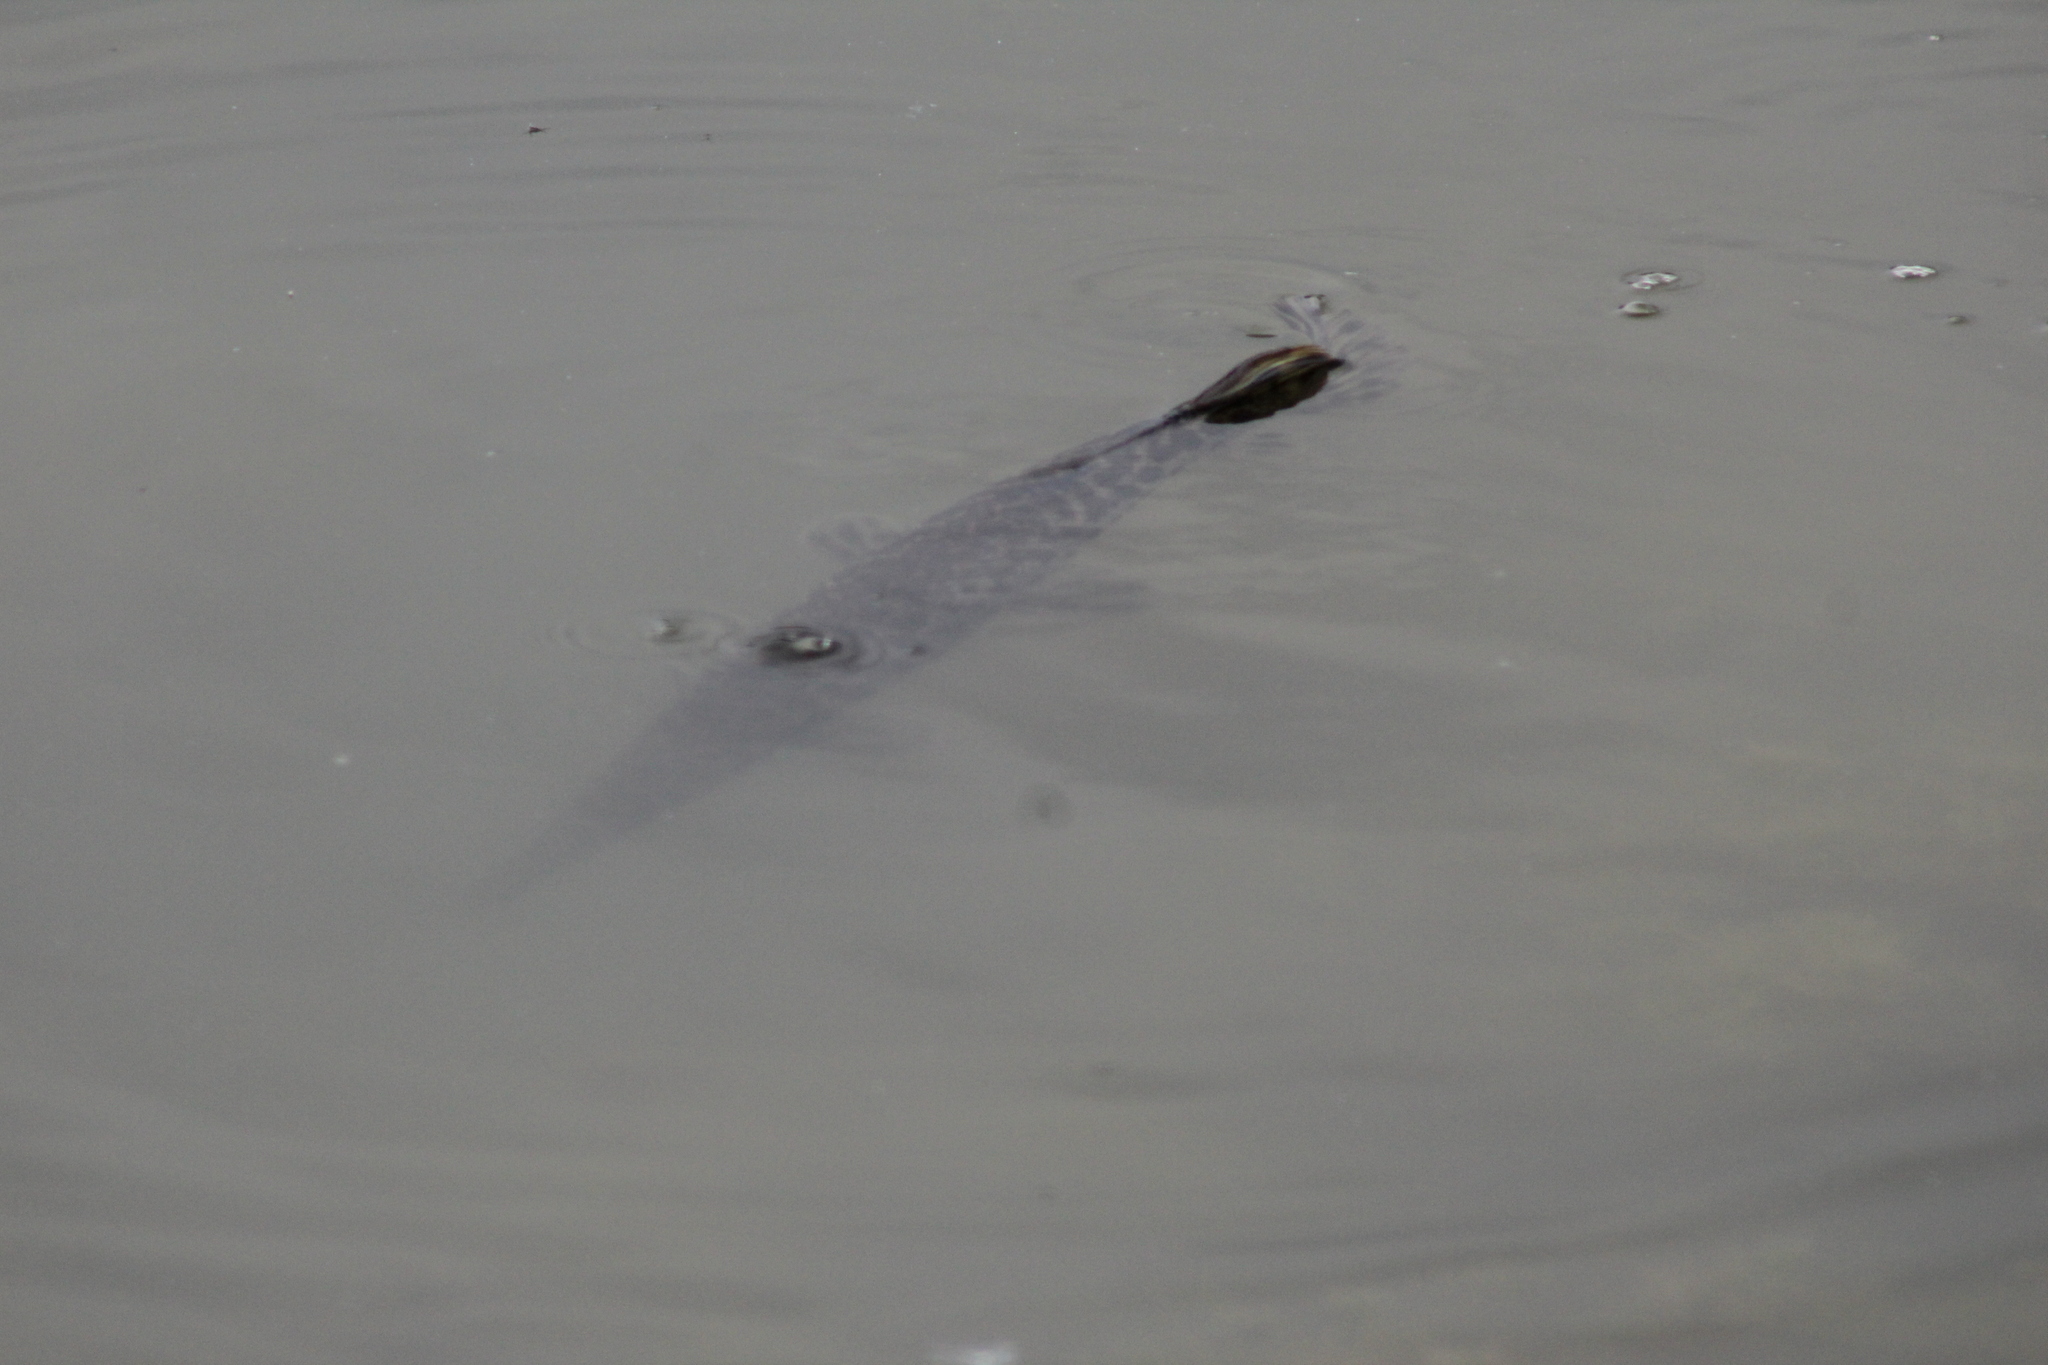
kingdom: Animalia
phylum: Chordata
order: Lepisosteiformes
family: Lepisosteidae
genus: Lepisosteus
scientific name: Lepisosteus oculatus
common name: Spotted gar
